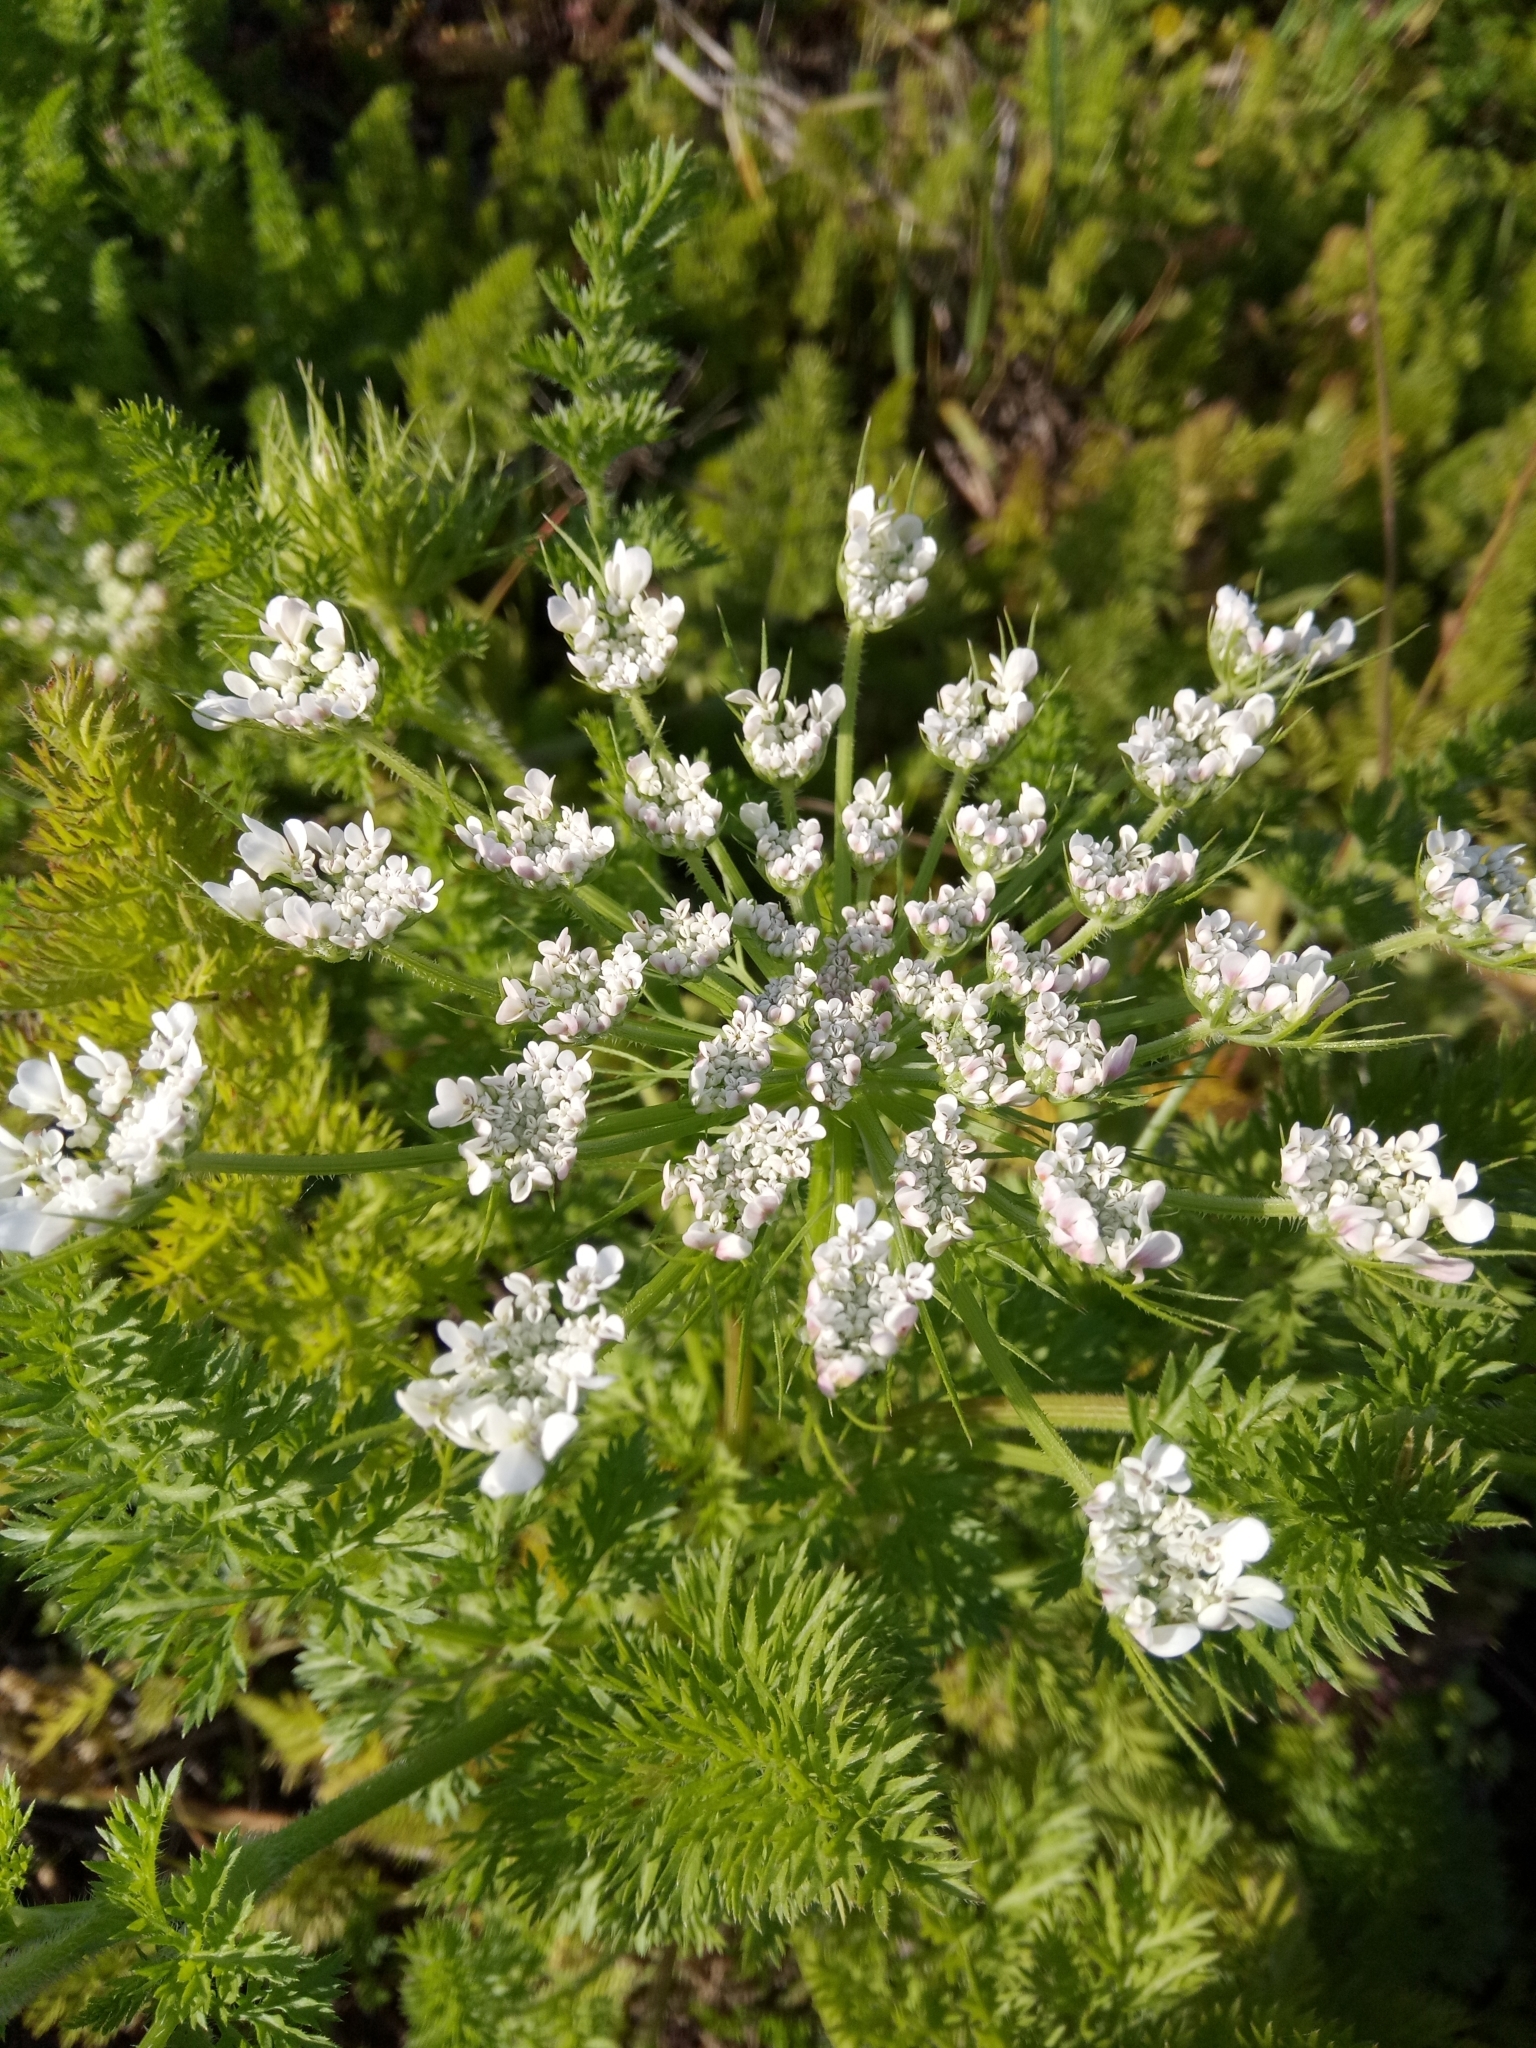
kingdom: Plantae
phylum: Tracheophyta
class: Magnoliopsida
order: Apiales
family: Apiaceae
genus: Daucus
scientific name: Daucus carota
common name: Wild carrot
